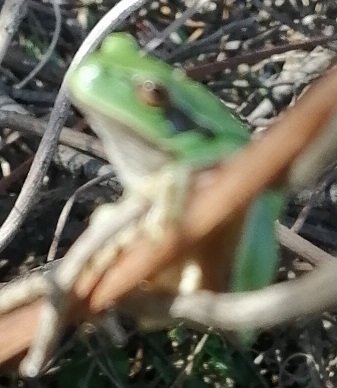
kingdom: Animalia
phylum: Chordata
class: Amphibia
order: Anura
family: Hylidae
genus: Hyla
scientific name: Hyla arborea
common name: Common tree frog
